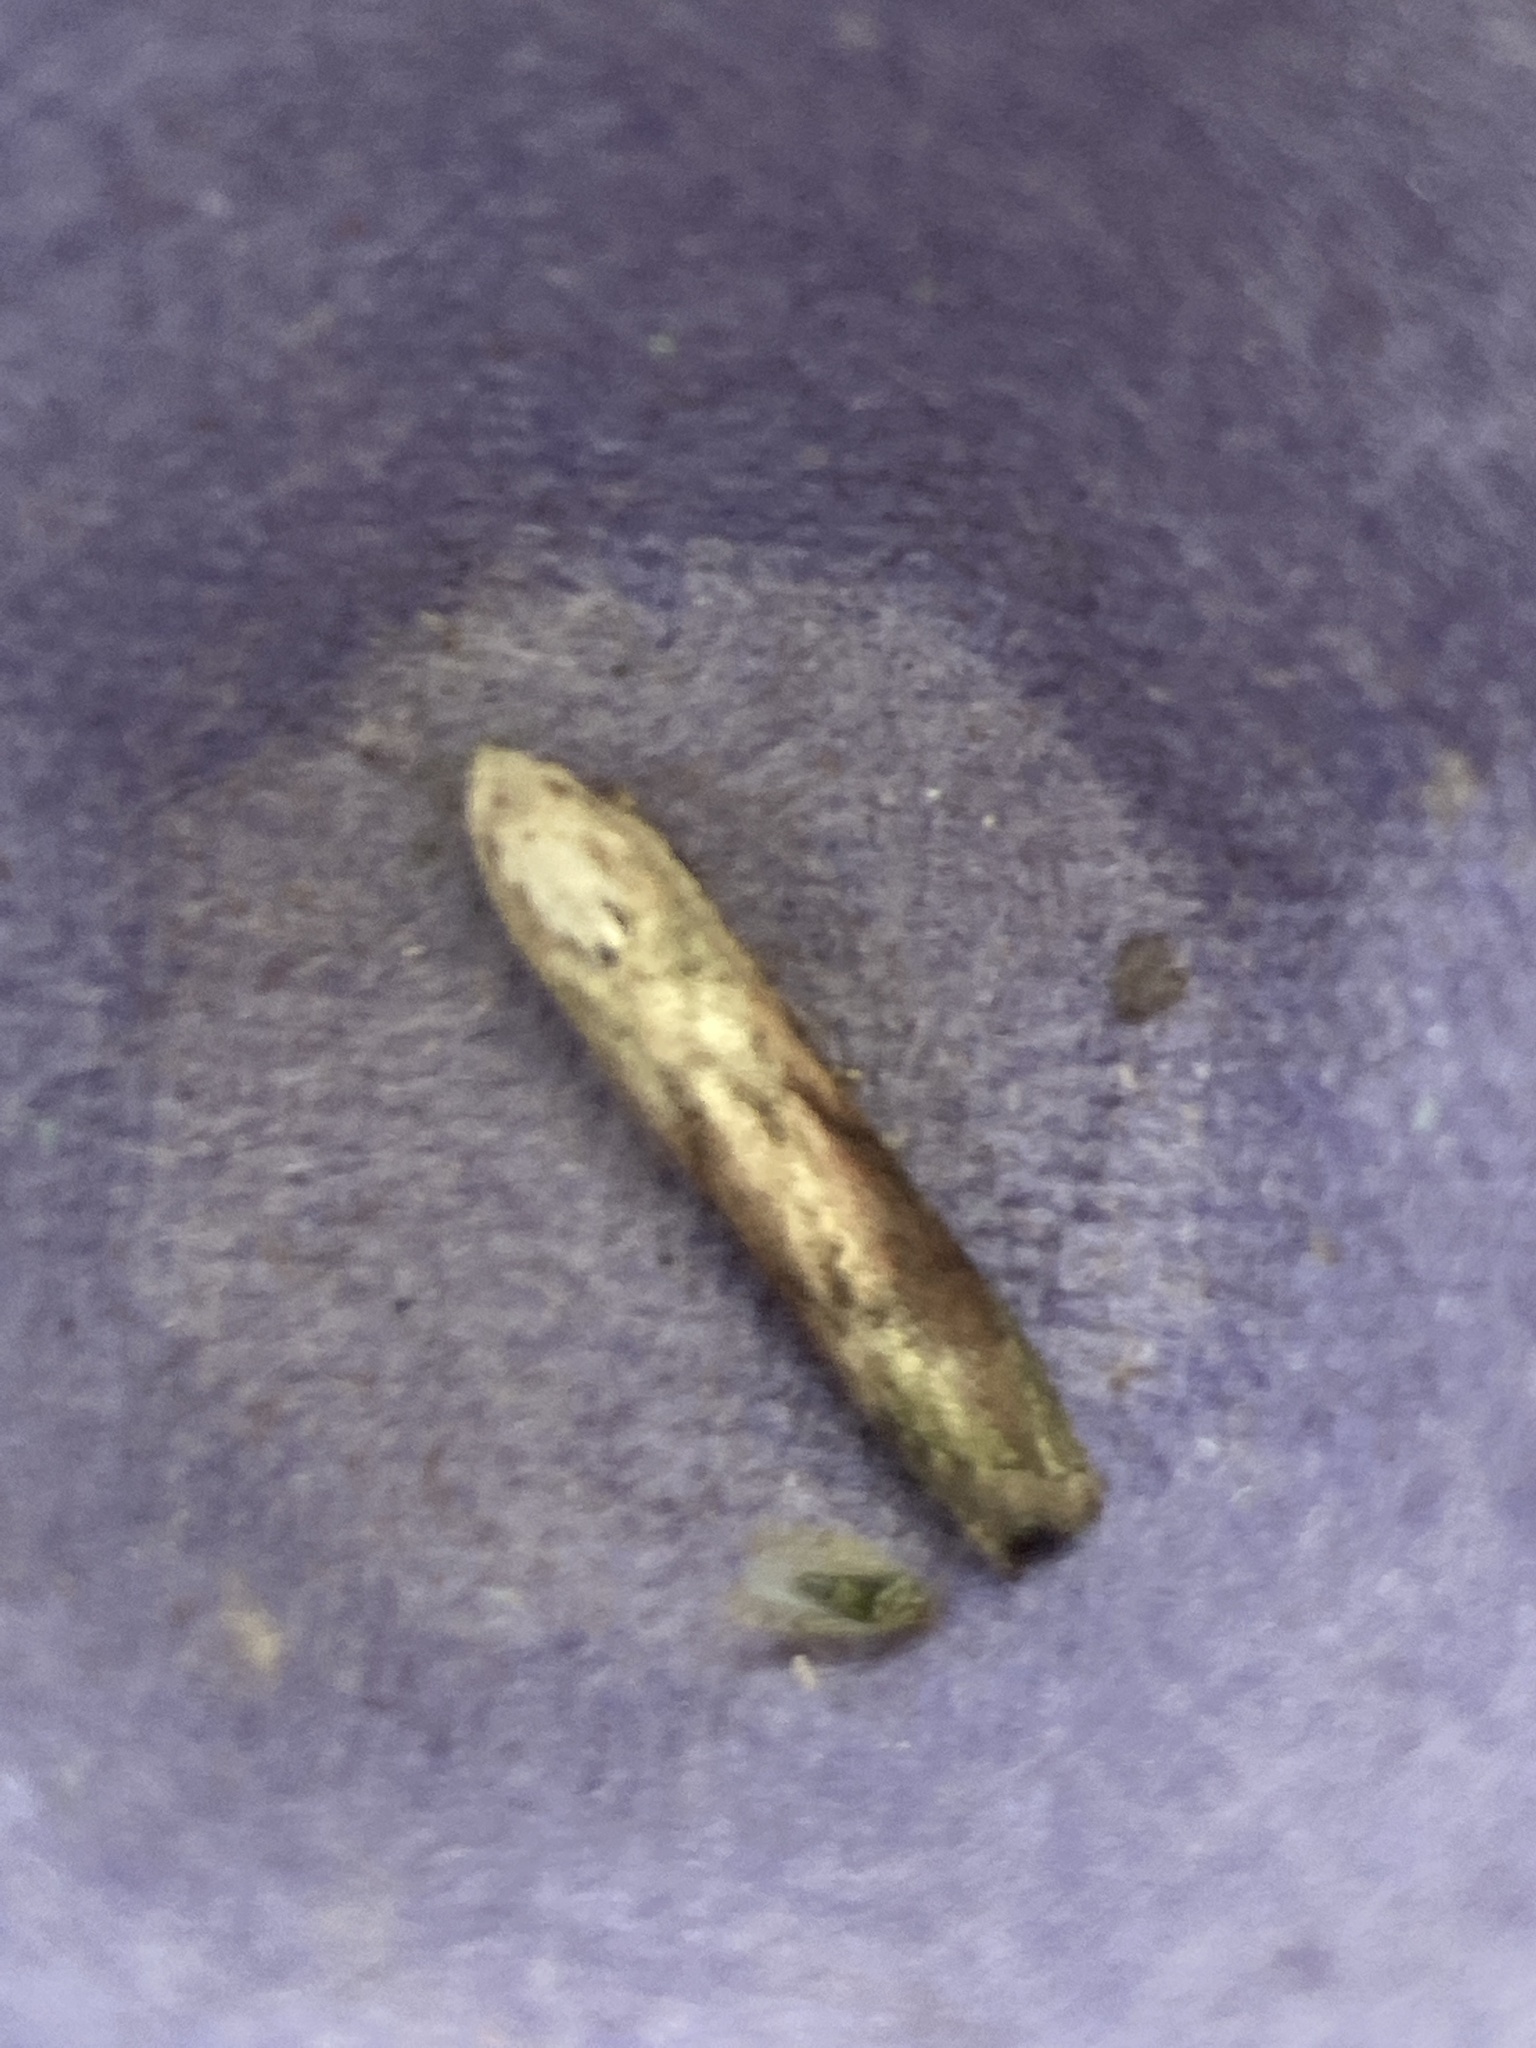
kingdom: Animalia
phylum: Arthropoda
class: Insecta
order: Lepidoptera
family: Pyralidae
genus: Aphomia
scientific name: Aphomia sociella
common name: Bee moth
